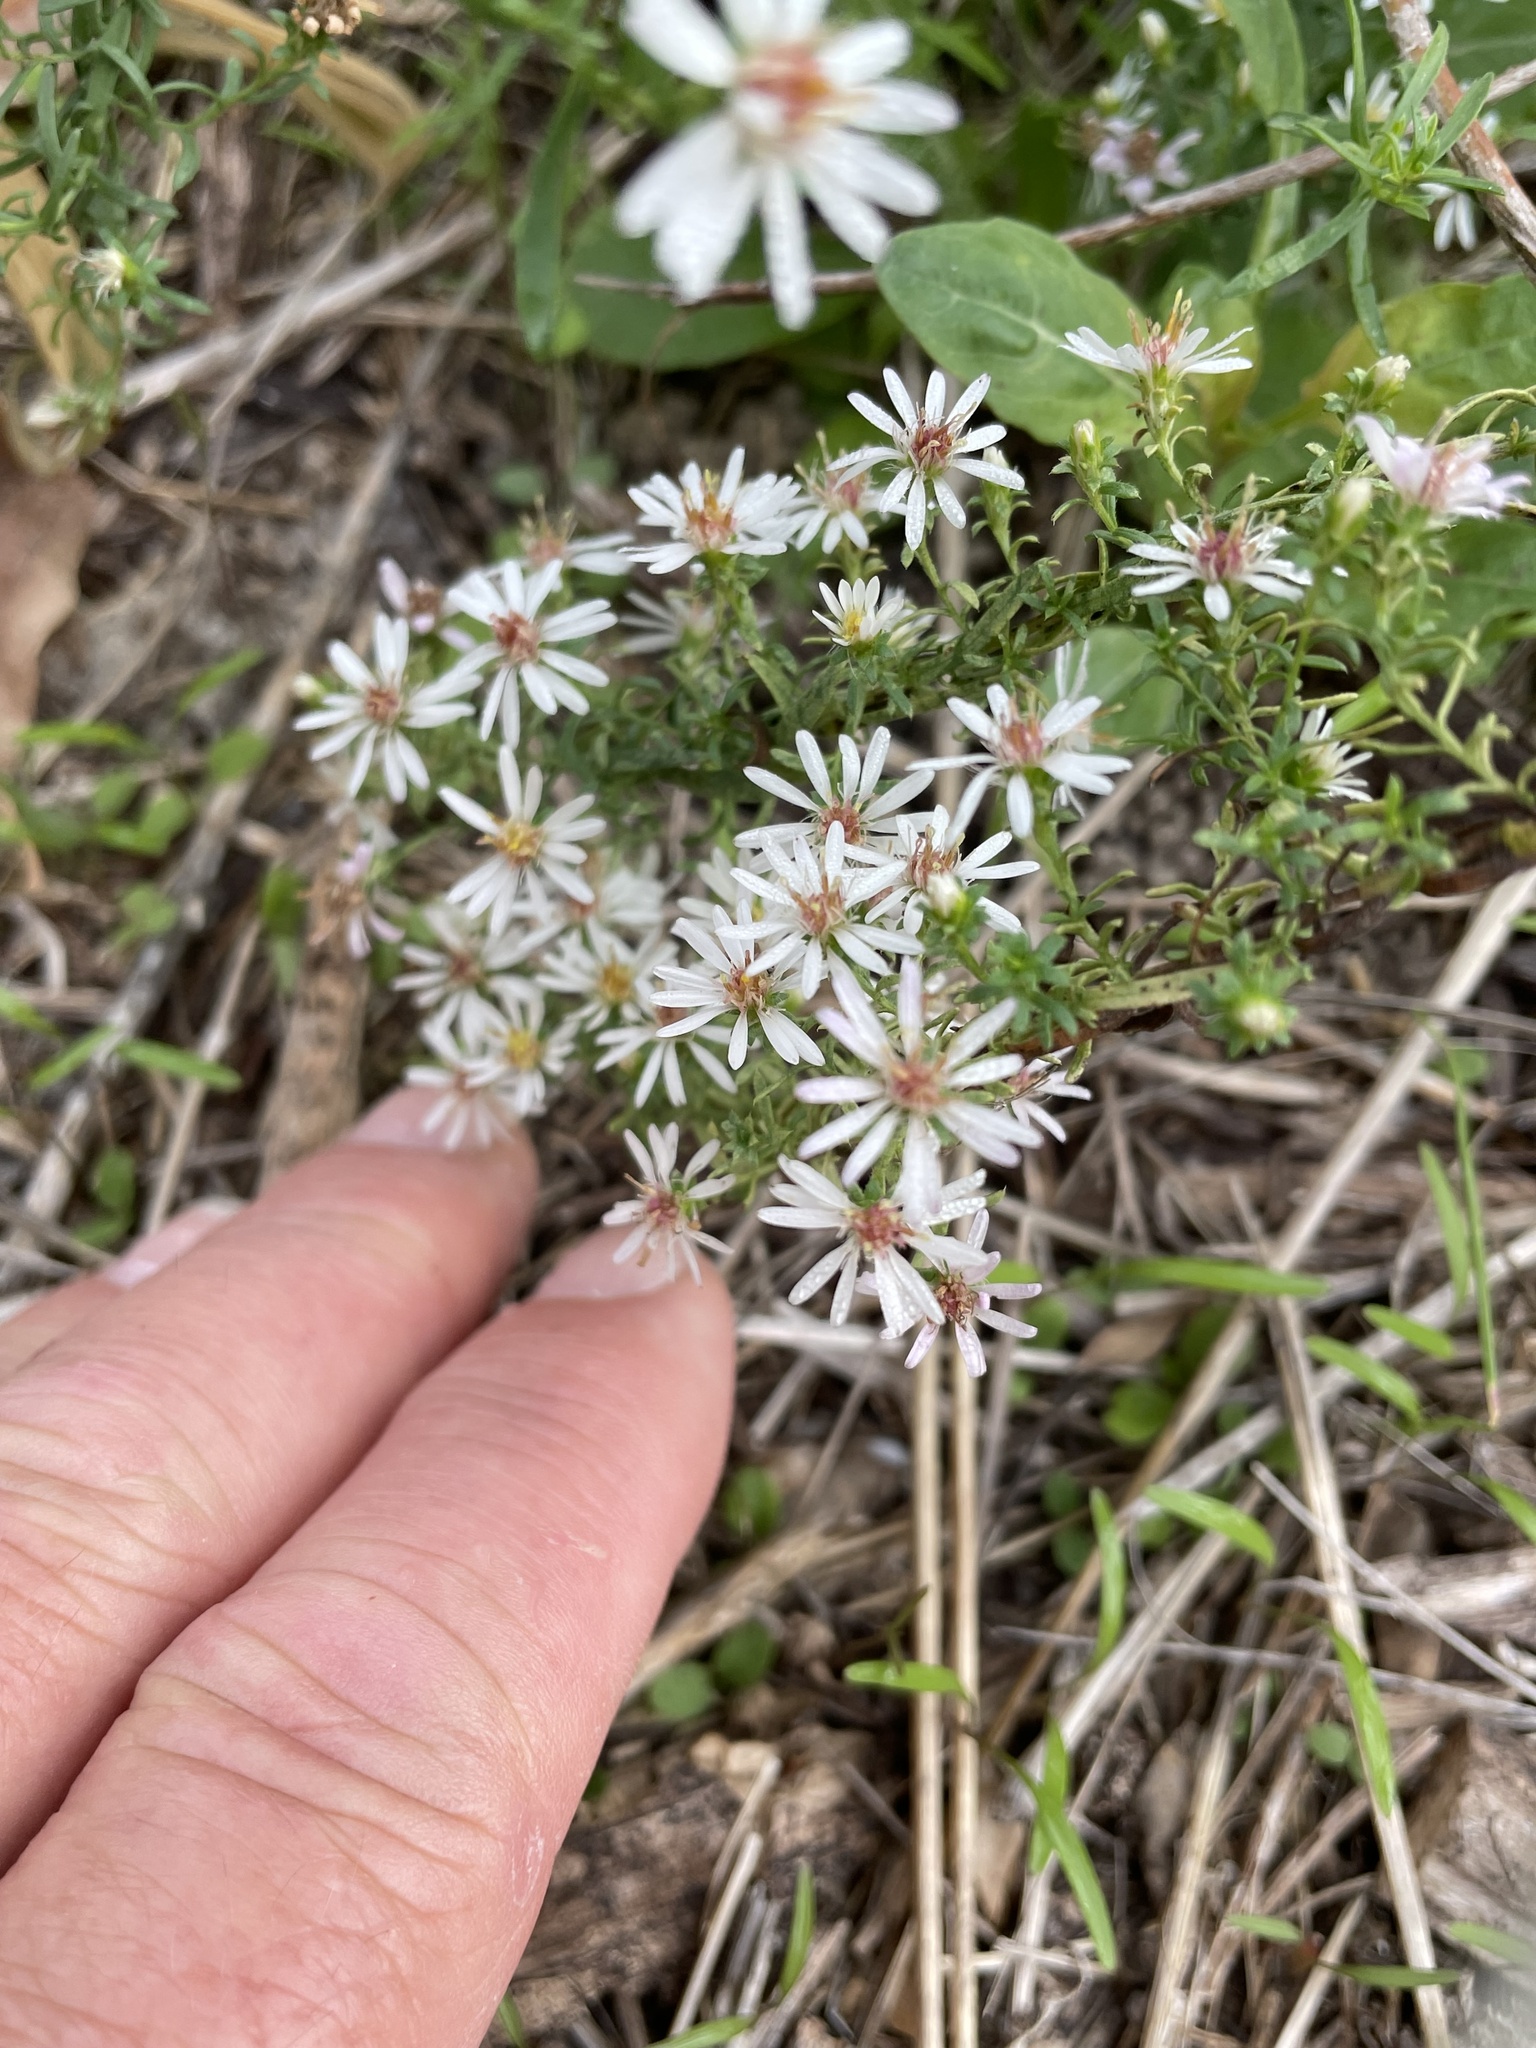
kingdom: Plantae
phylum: Tracheophyta
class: Magnoliopsida
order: Asterales
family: Asteraceae
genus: Symphyotrichum
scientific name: Symphyotrichum ericoides
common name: Heath aster
